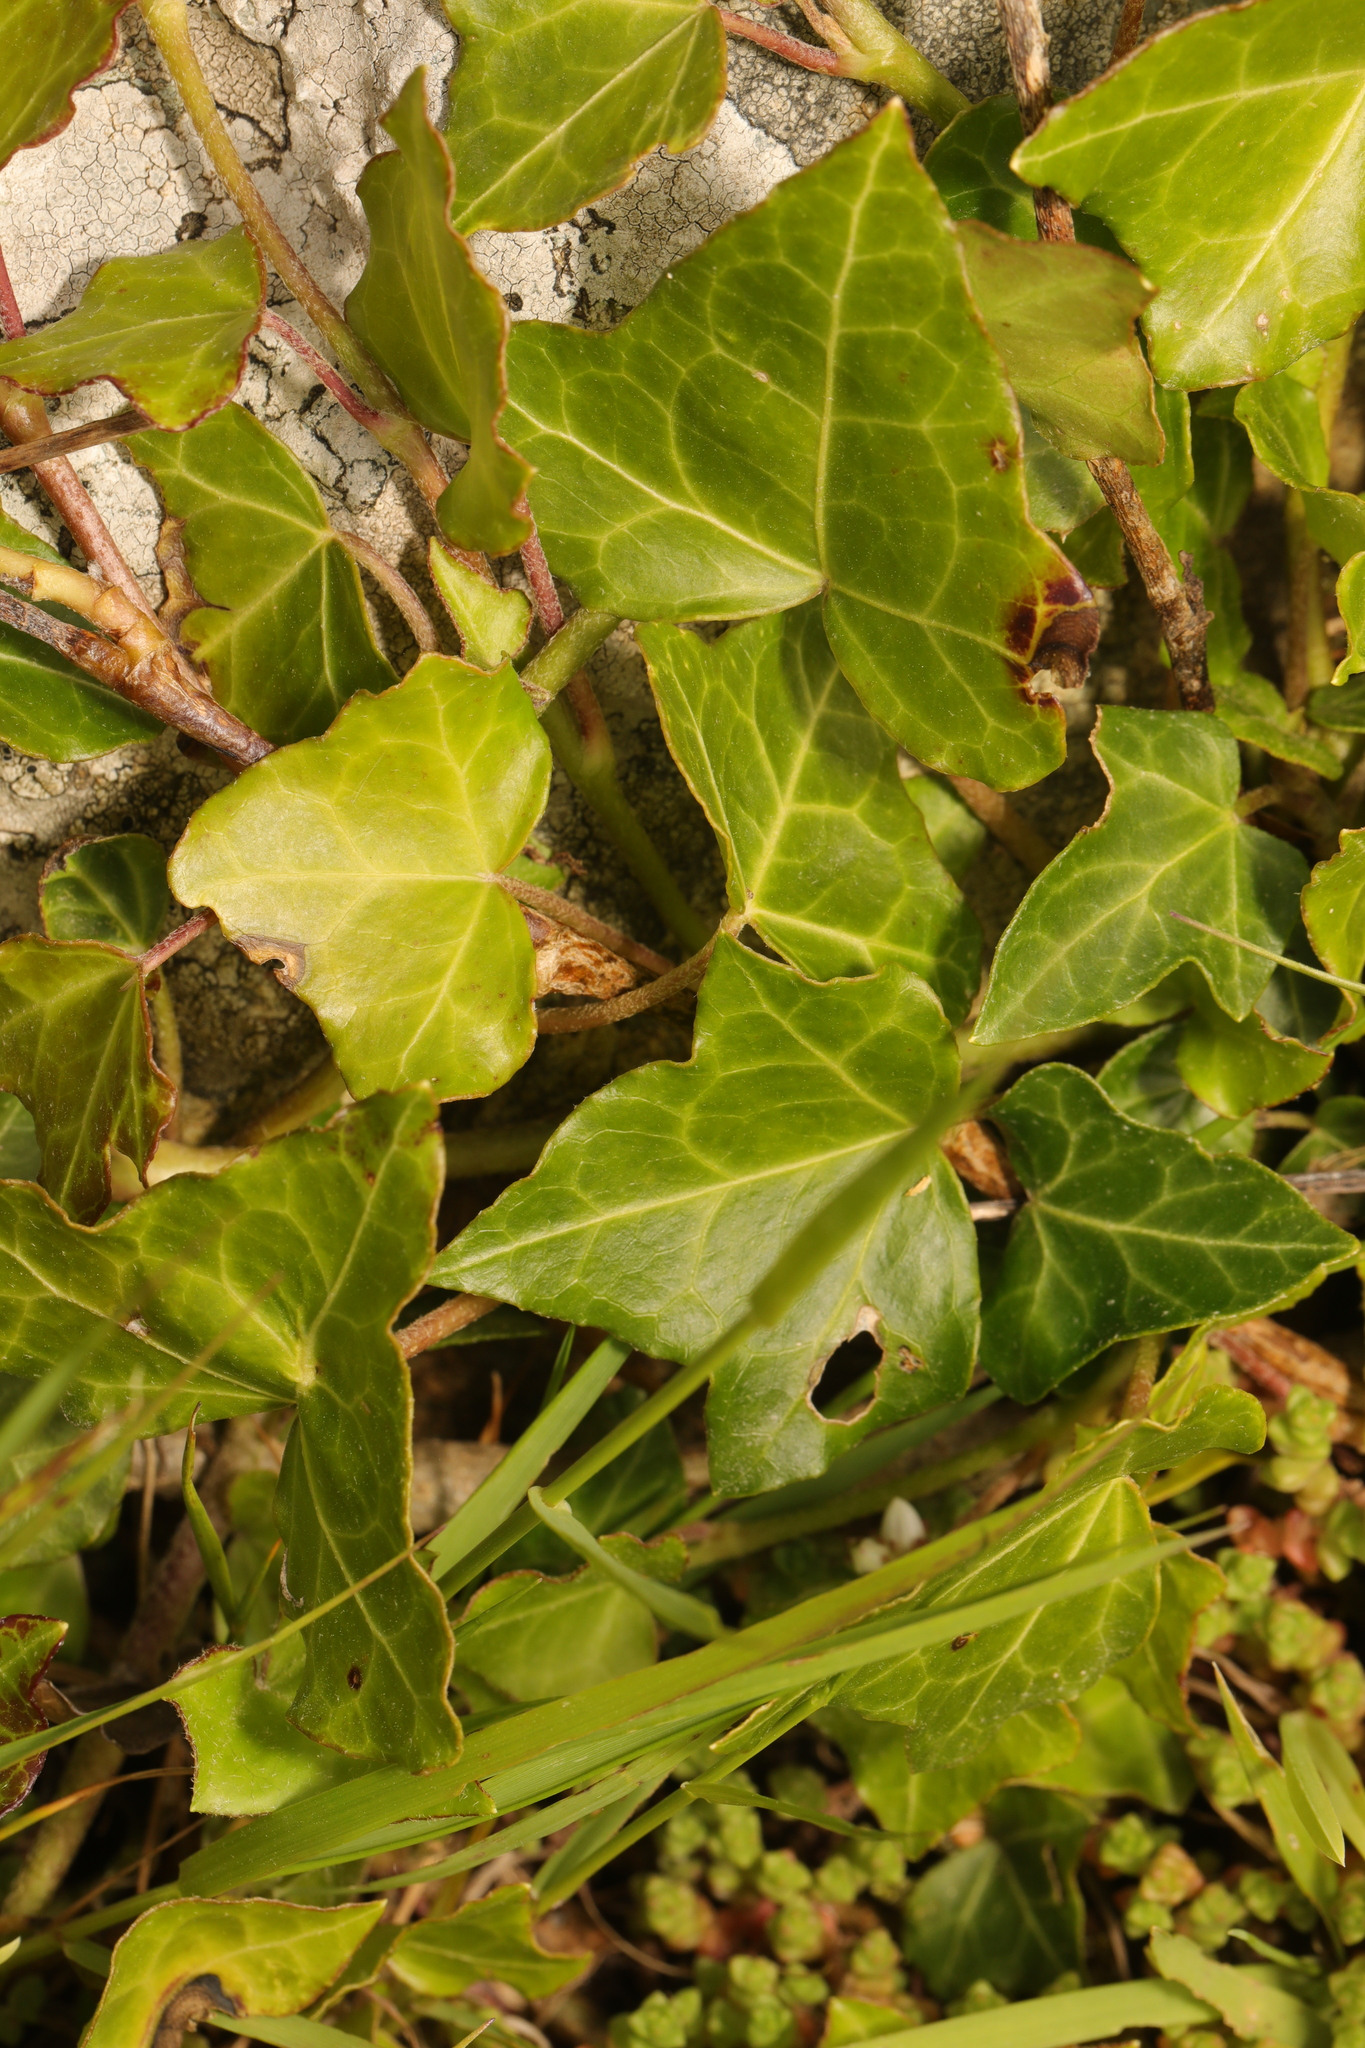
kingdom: Plantae
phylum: Tracheophyta
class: Magnoliopsida
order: Apiales
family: Araliaceae
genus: Hedera
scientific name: Hedera helix
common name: Ivy
